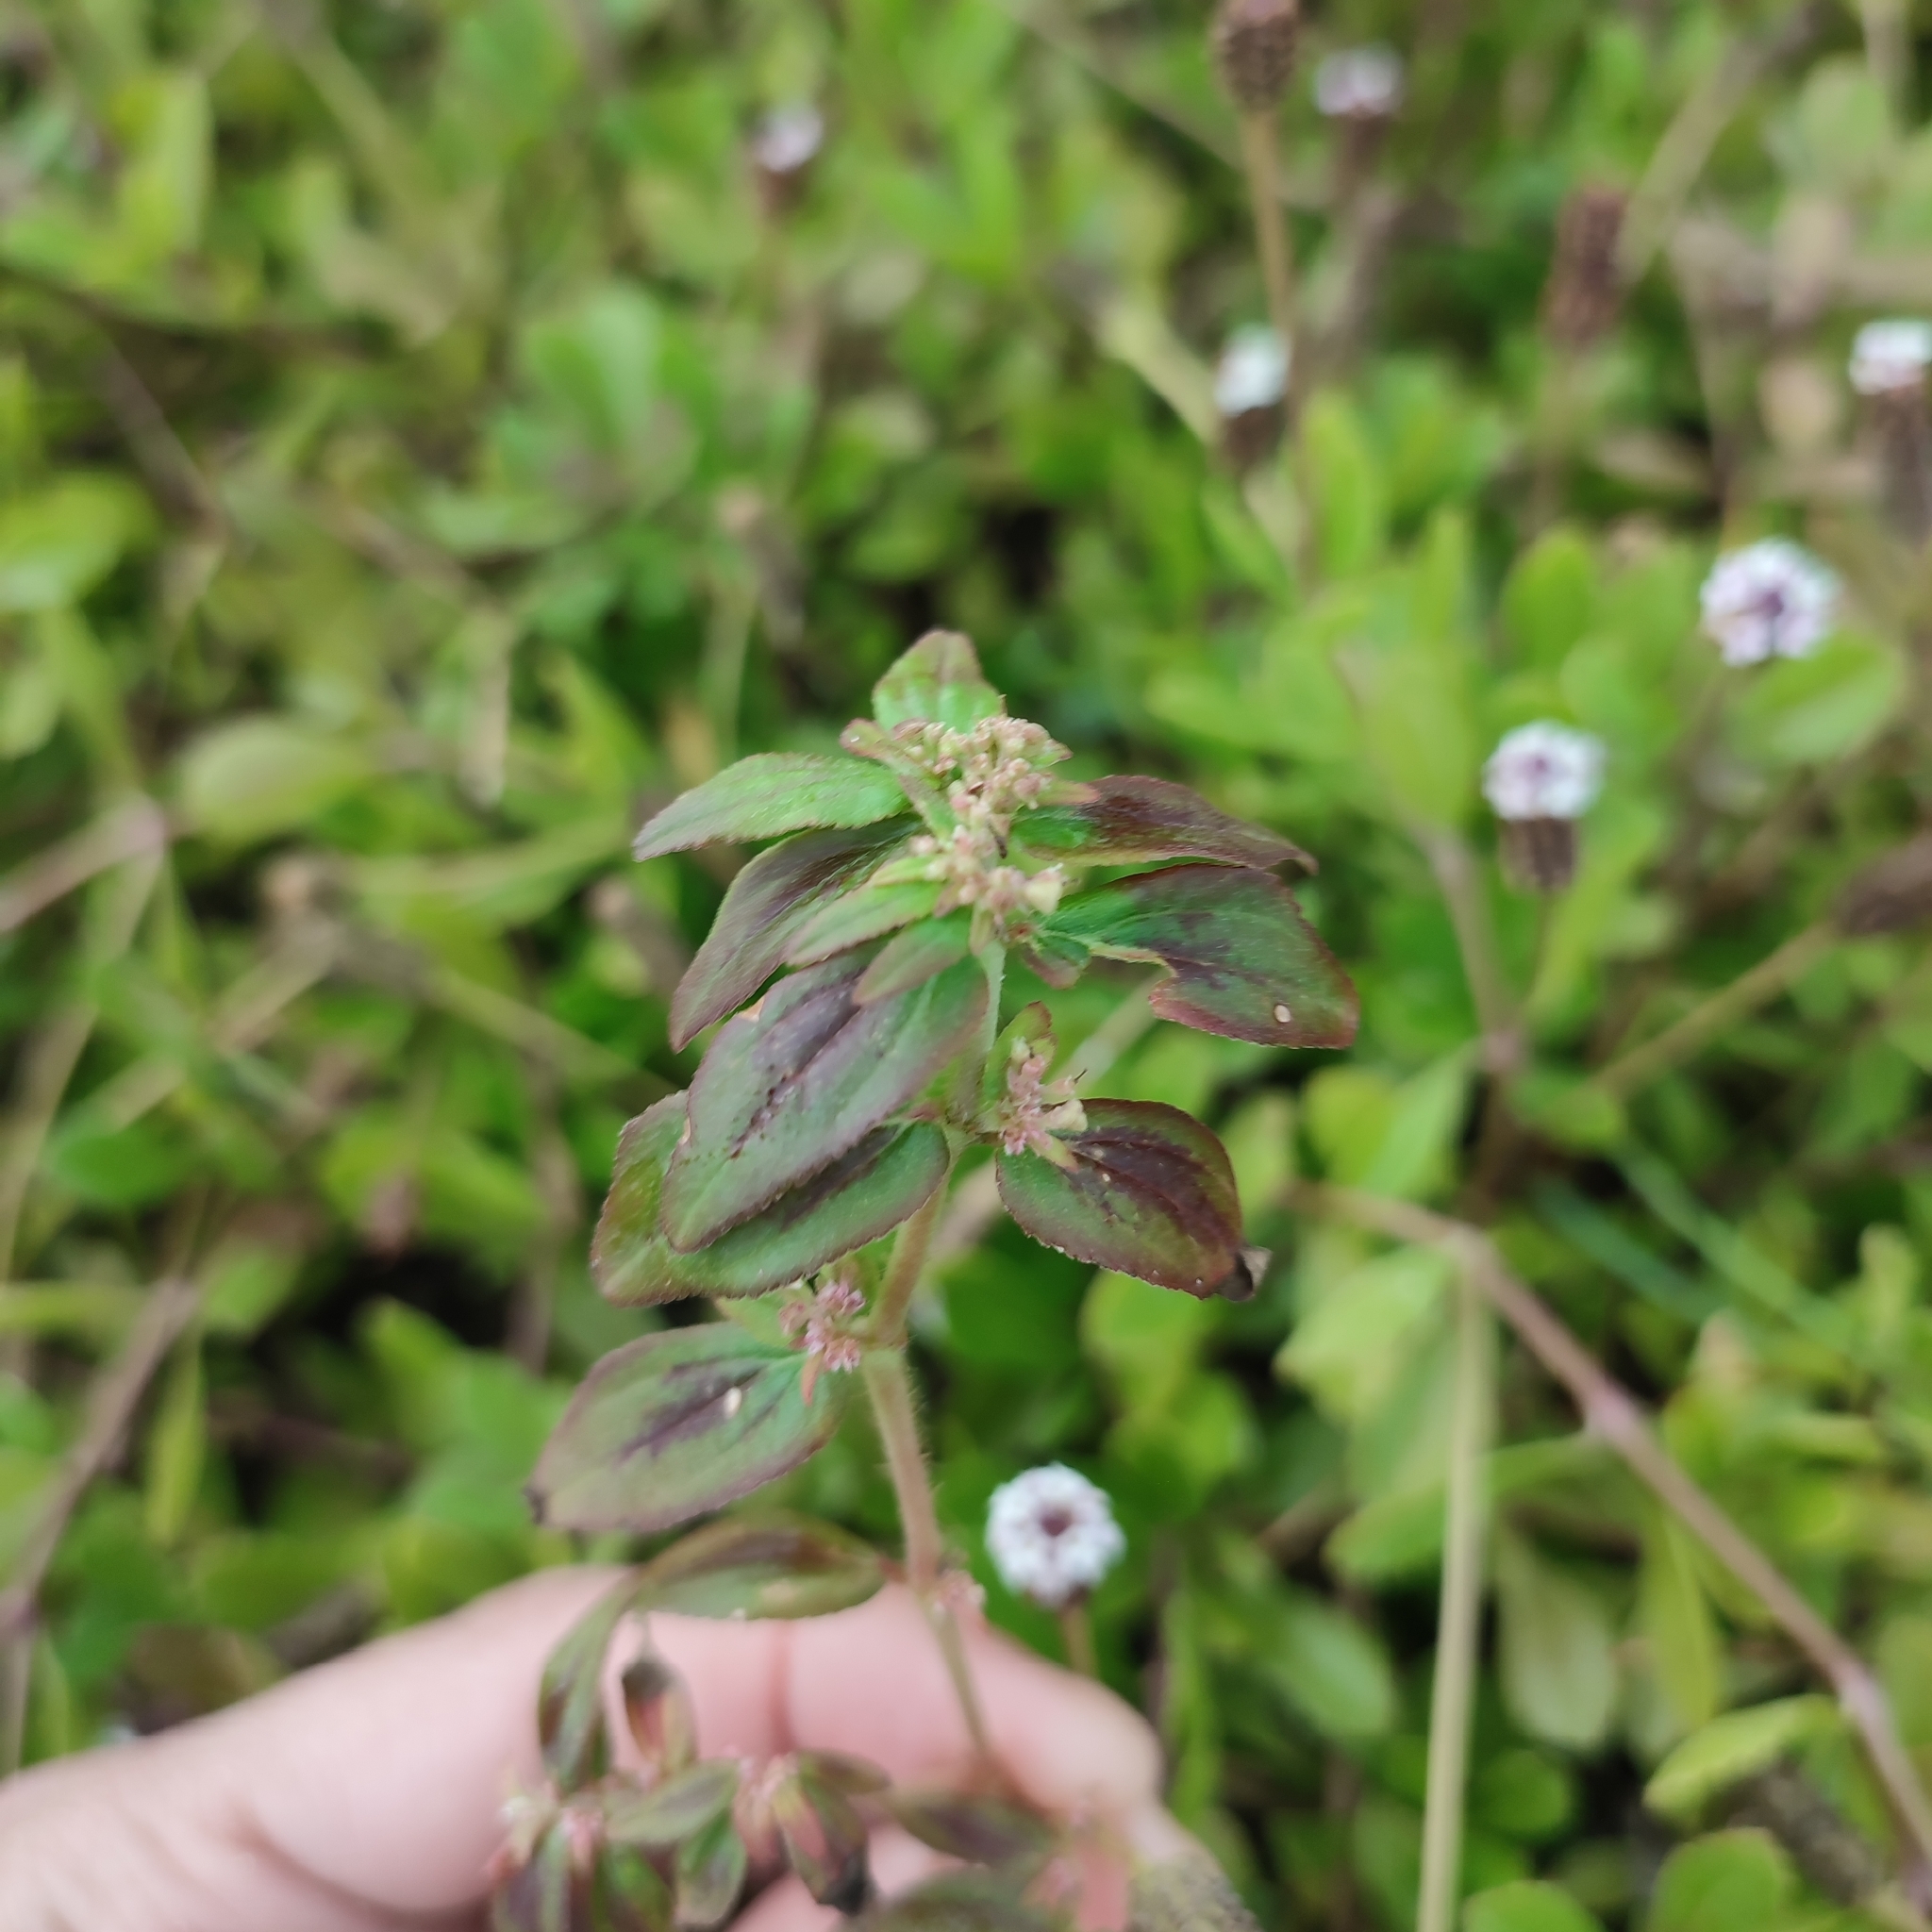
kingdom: Plantae
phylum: Tracheophyta
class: Magnoliopsida
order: Malpighiales
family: Euphorbiaceae
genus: Euphorbia
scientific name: Euphorbia hirta
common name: Pillpod sandmat
